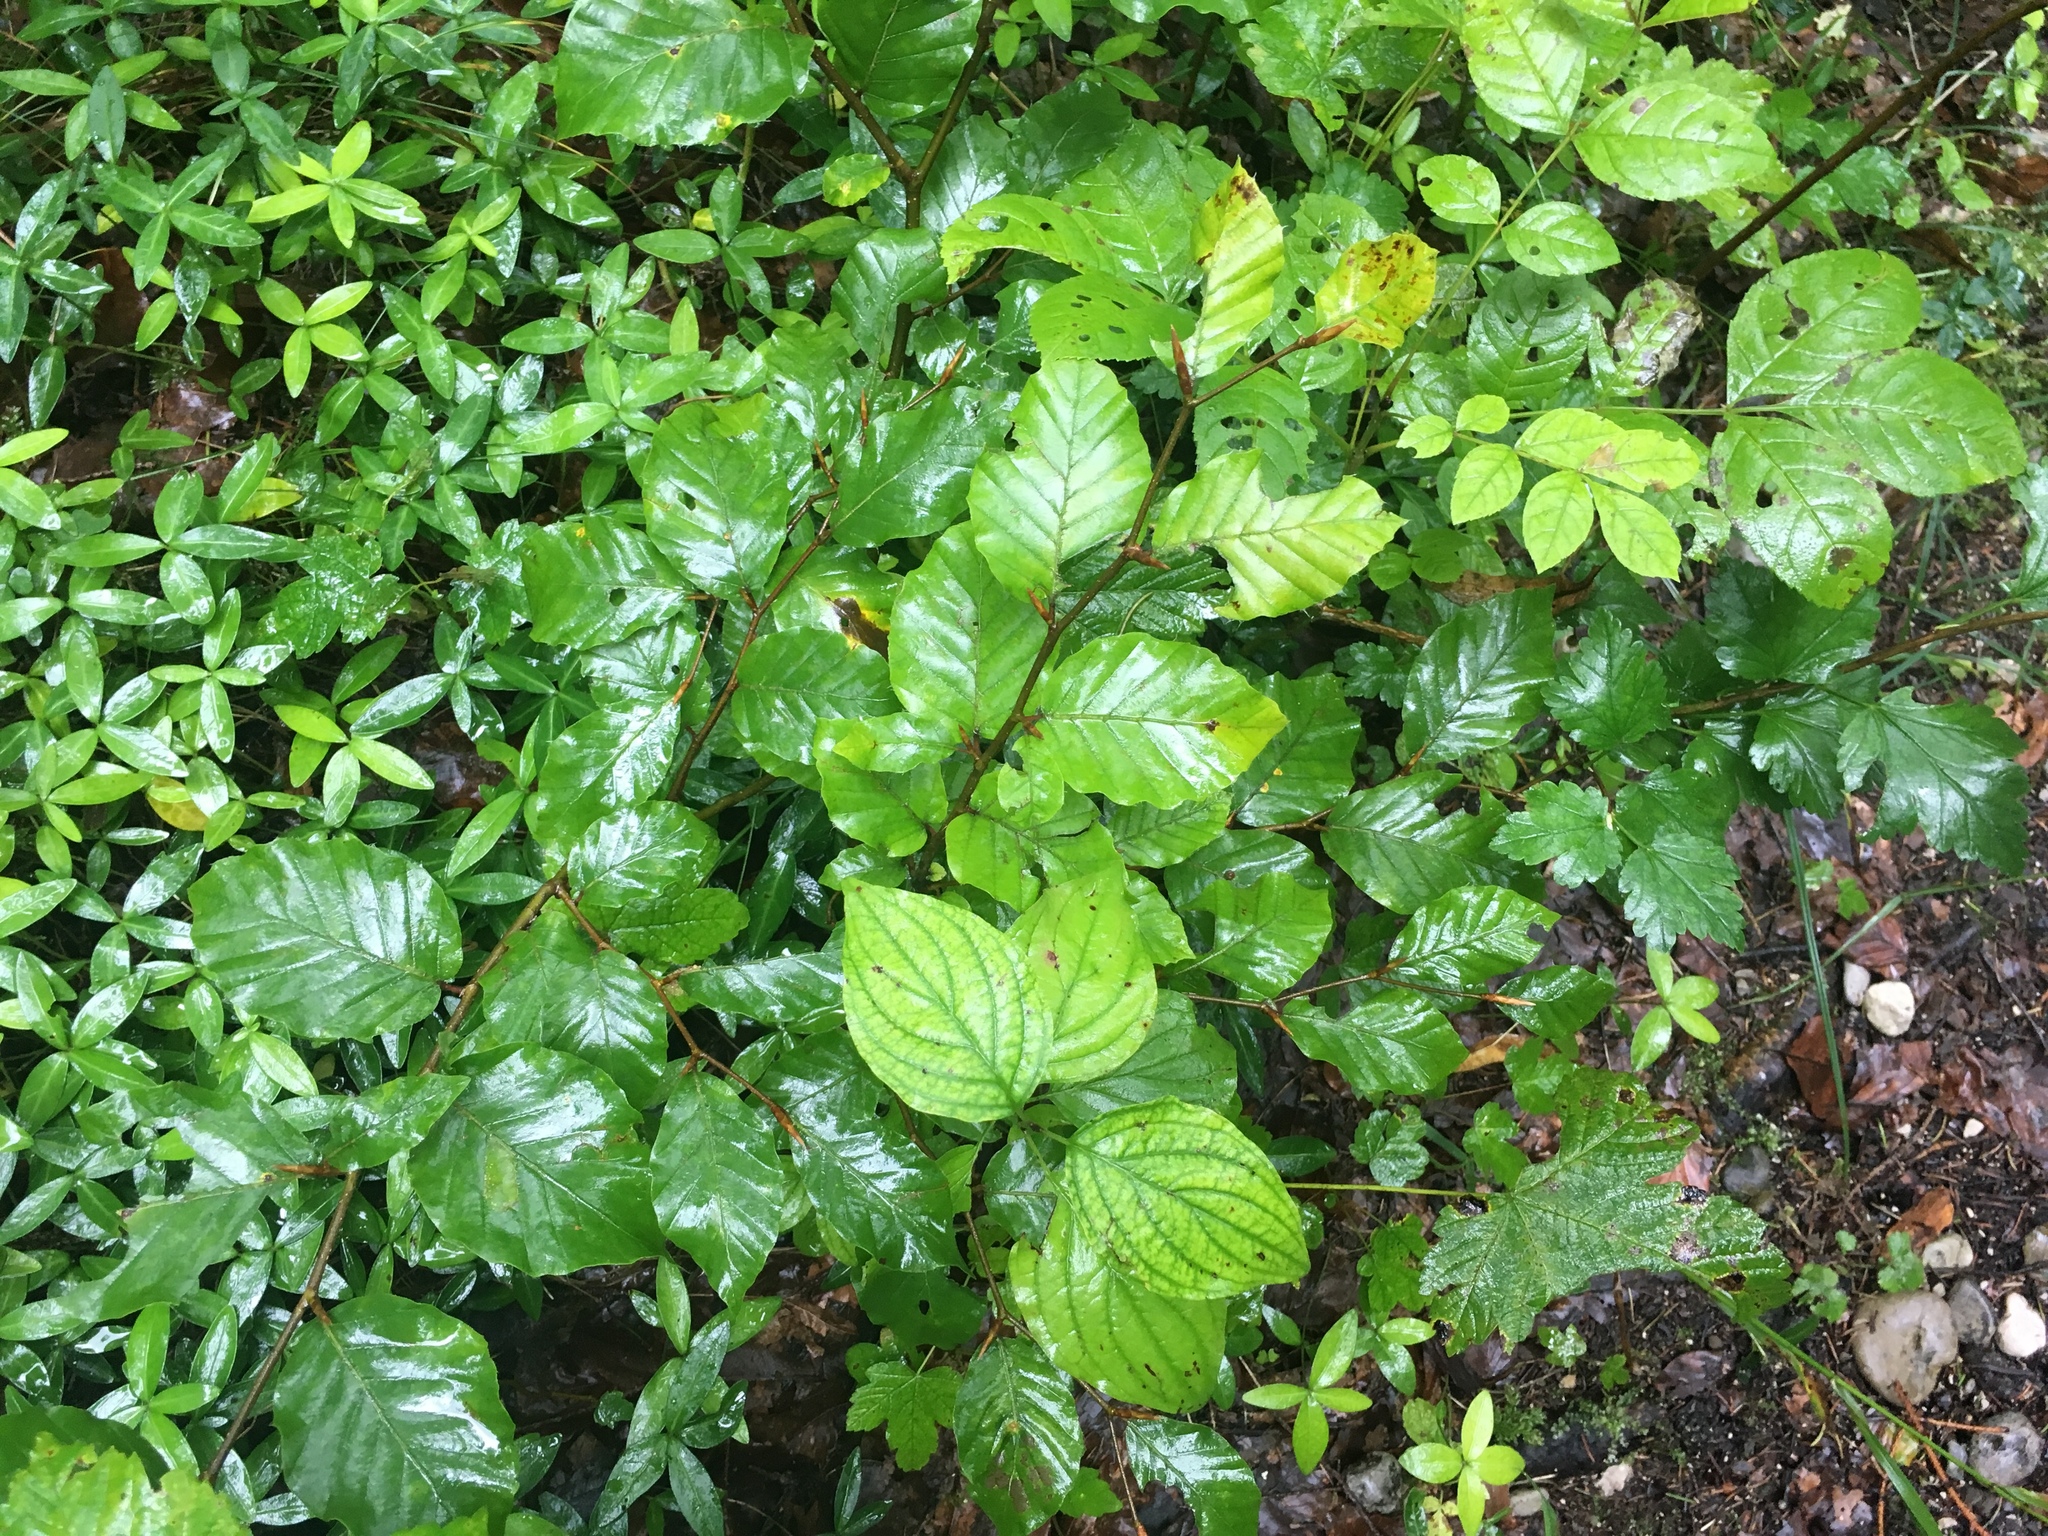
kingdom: Plantae
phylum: Tracheophyta
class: Magnoliopsida
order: Fagales
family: Fagaceae
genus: Fagus
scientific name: Fagus sylvatica
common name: Beech
